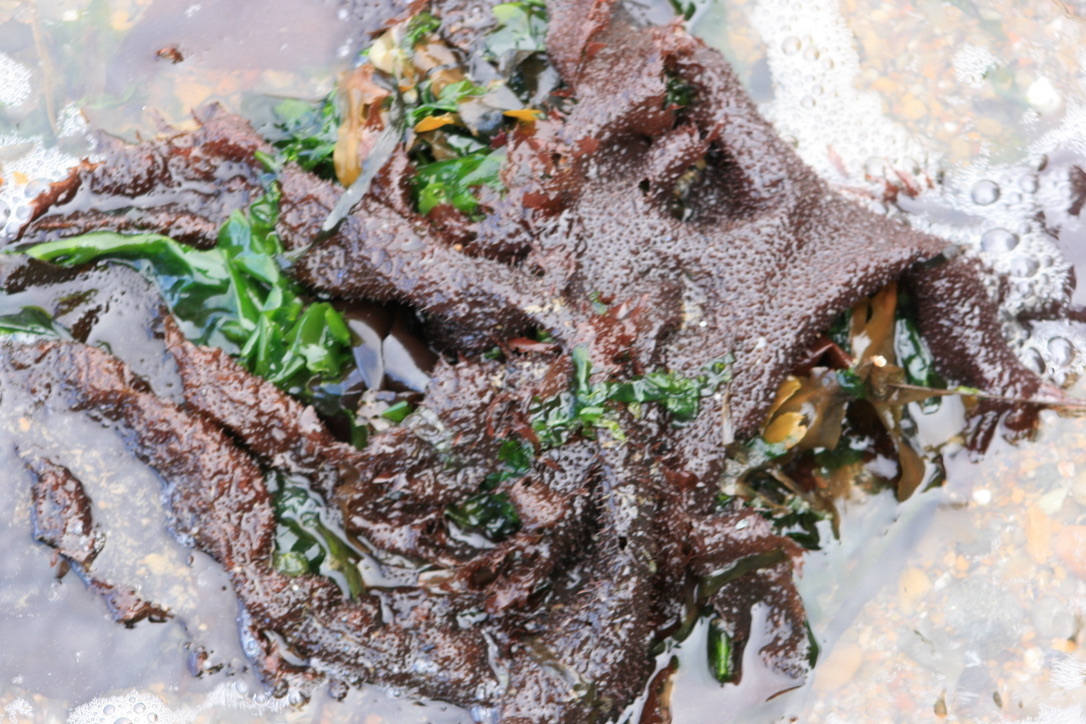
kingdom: Plantae
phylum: Rhodophyta
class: Florideophyceae
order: Gigartinales
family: Gigartinaceae
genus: Chondracanthus
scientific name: Chondracanthus exasperatus
